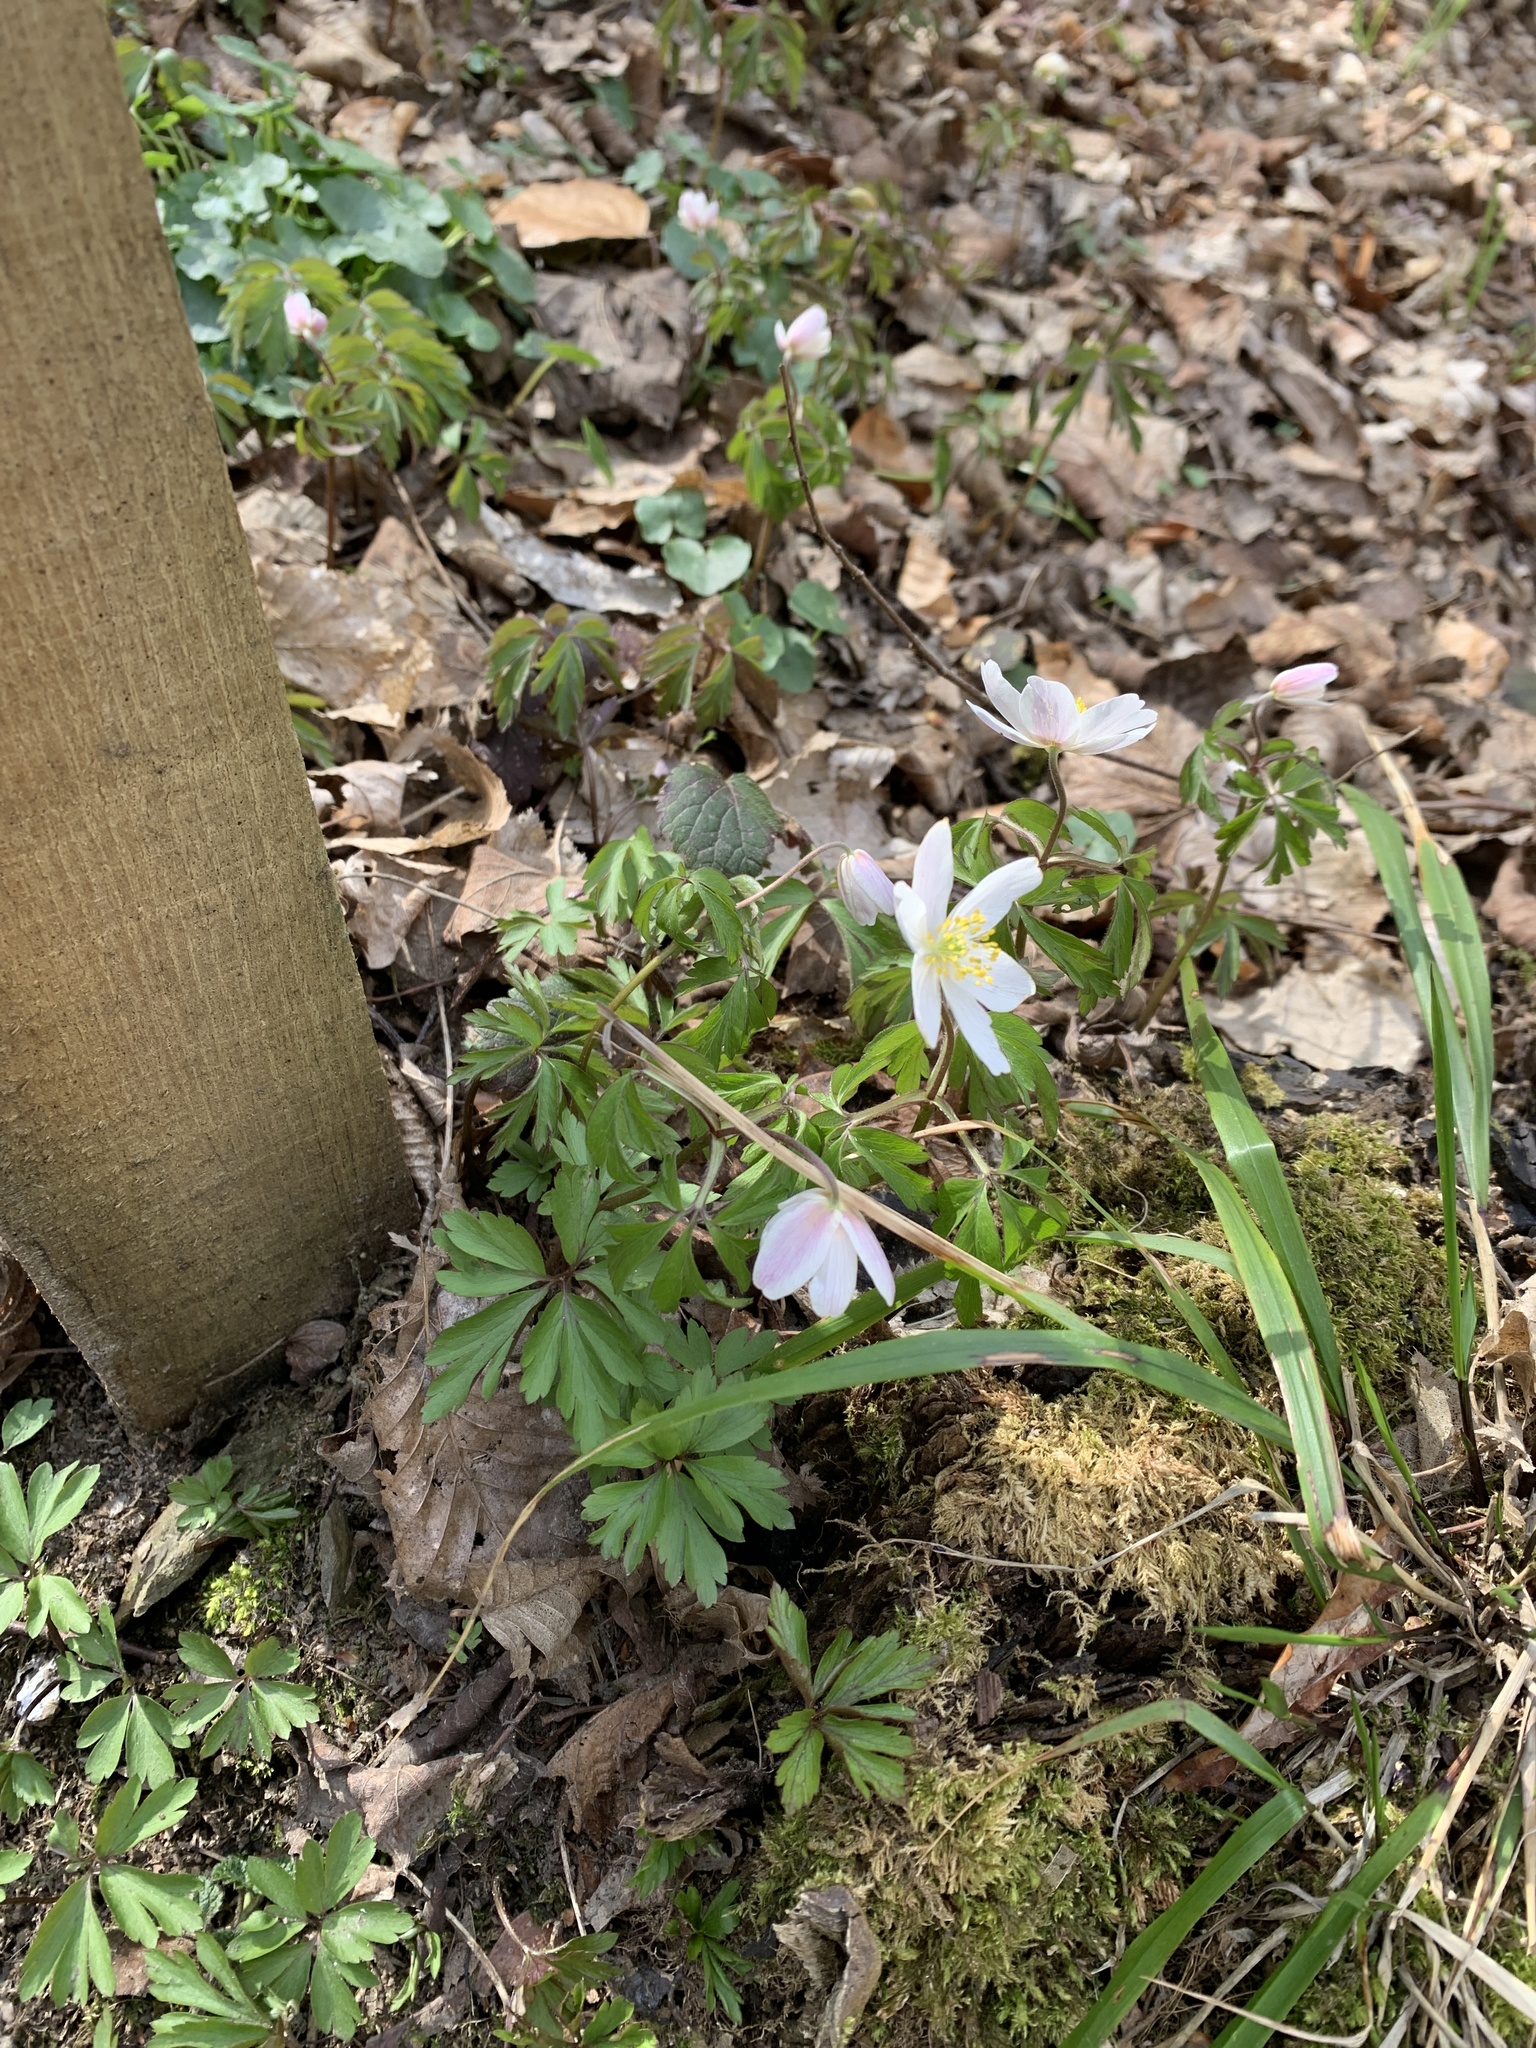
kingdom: Plantae
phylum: Tracheophyta
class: Magnoliopsida
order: Ranunculales
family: Ranunculaceae
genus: Anemone
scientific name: Anemone nemorosa
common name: Wood anemone
